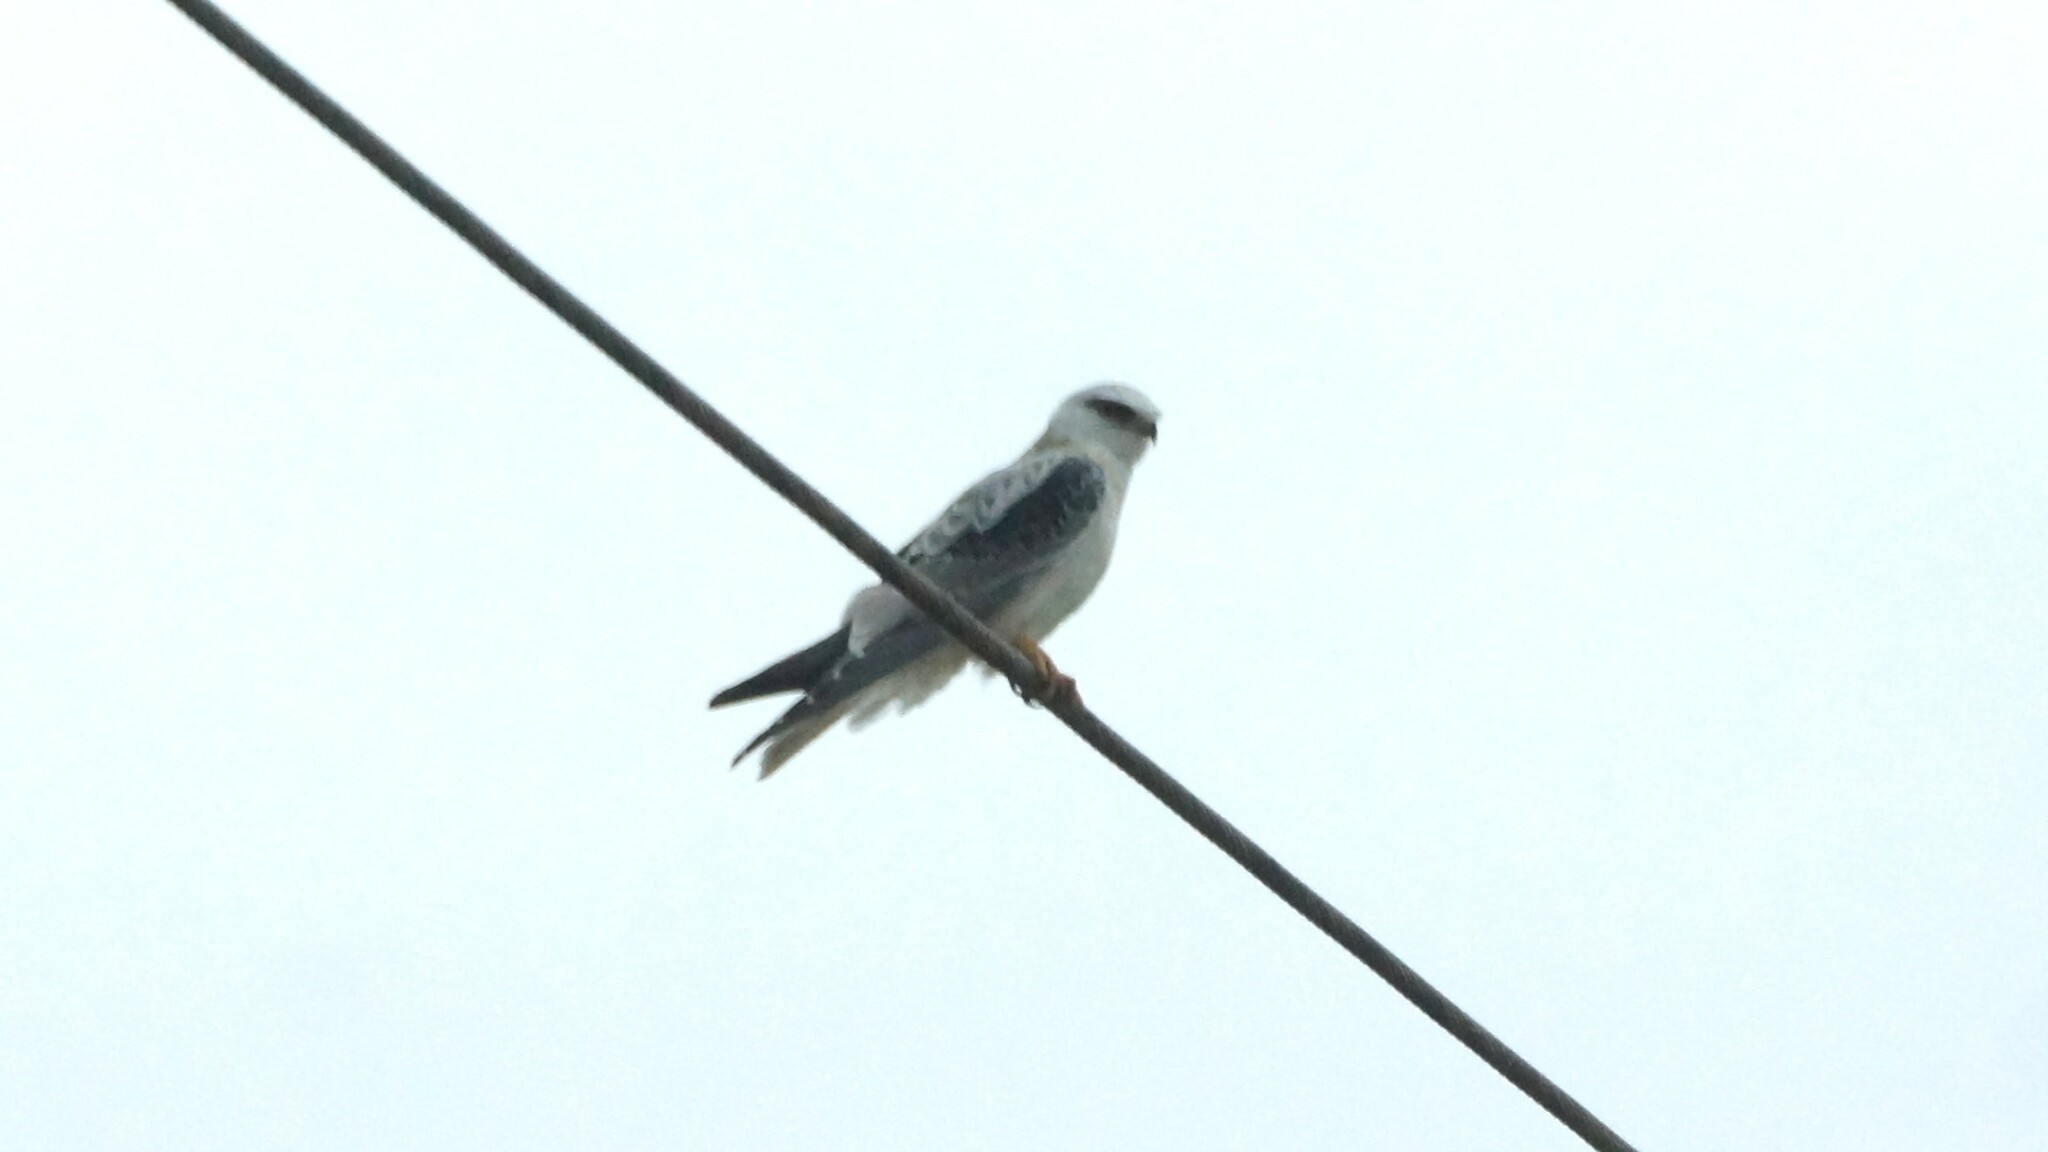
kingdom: Animalia
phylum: Chordata
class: Aves
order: Accipitriformes
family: Accipitridae
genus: Elanus
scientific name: Elanus axillaris
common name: Black-shouldered kite
